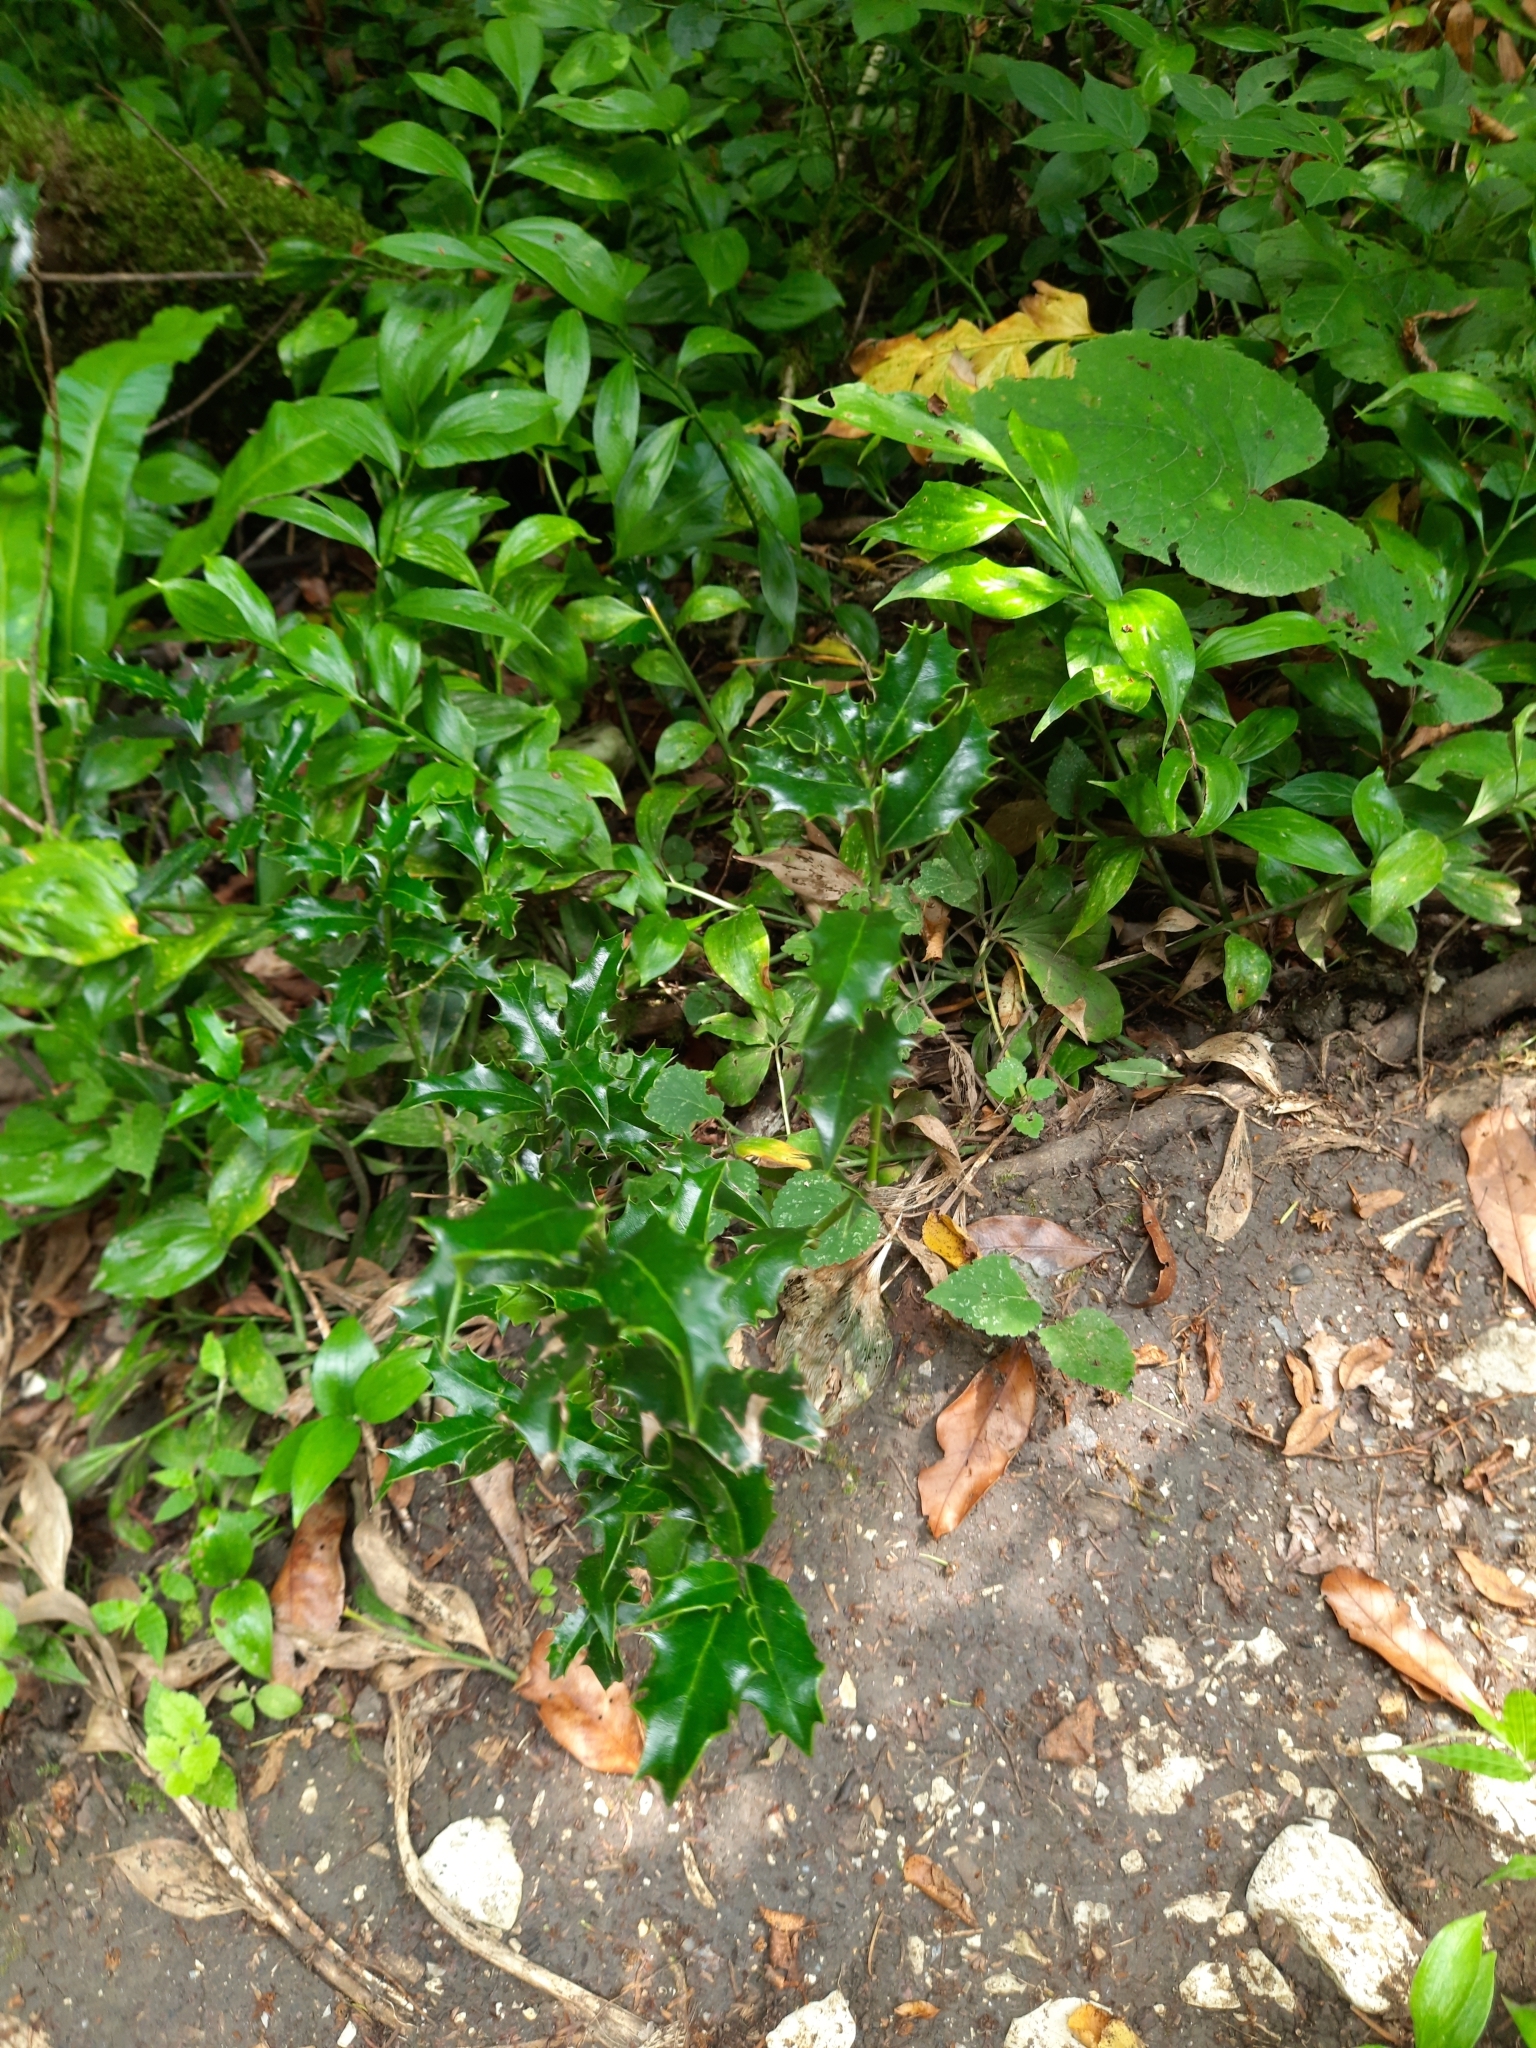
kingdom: Plantae
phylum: Tracheophyta
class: Magnoliopsida
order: Aquifoliales
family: Aquifoliaceae
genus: Ilex
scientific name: Ilex colchica
